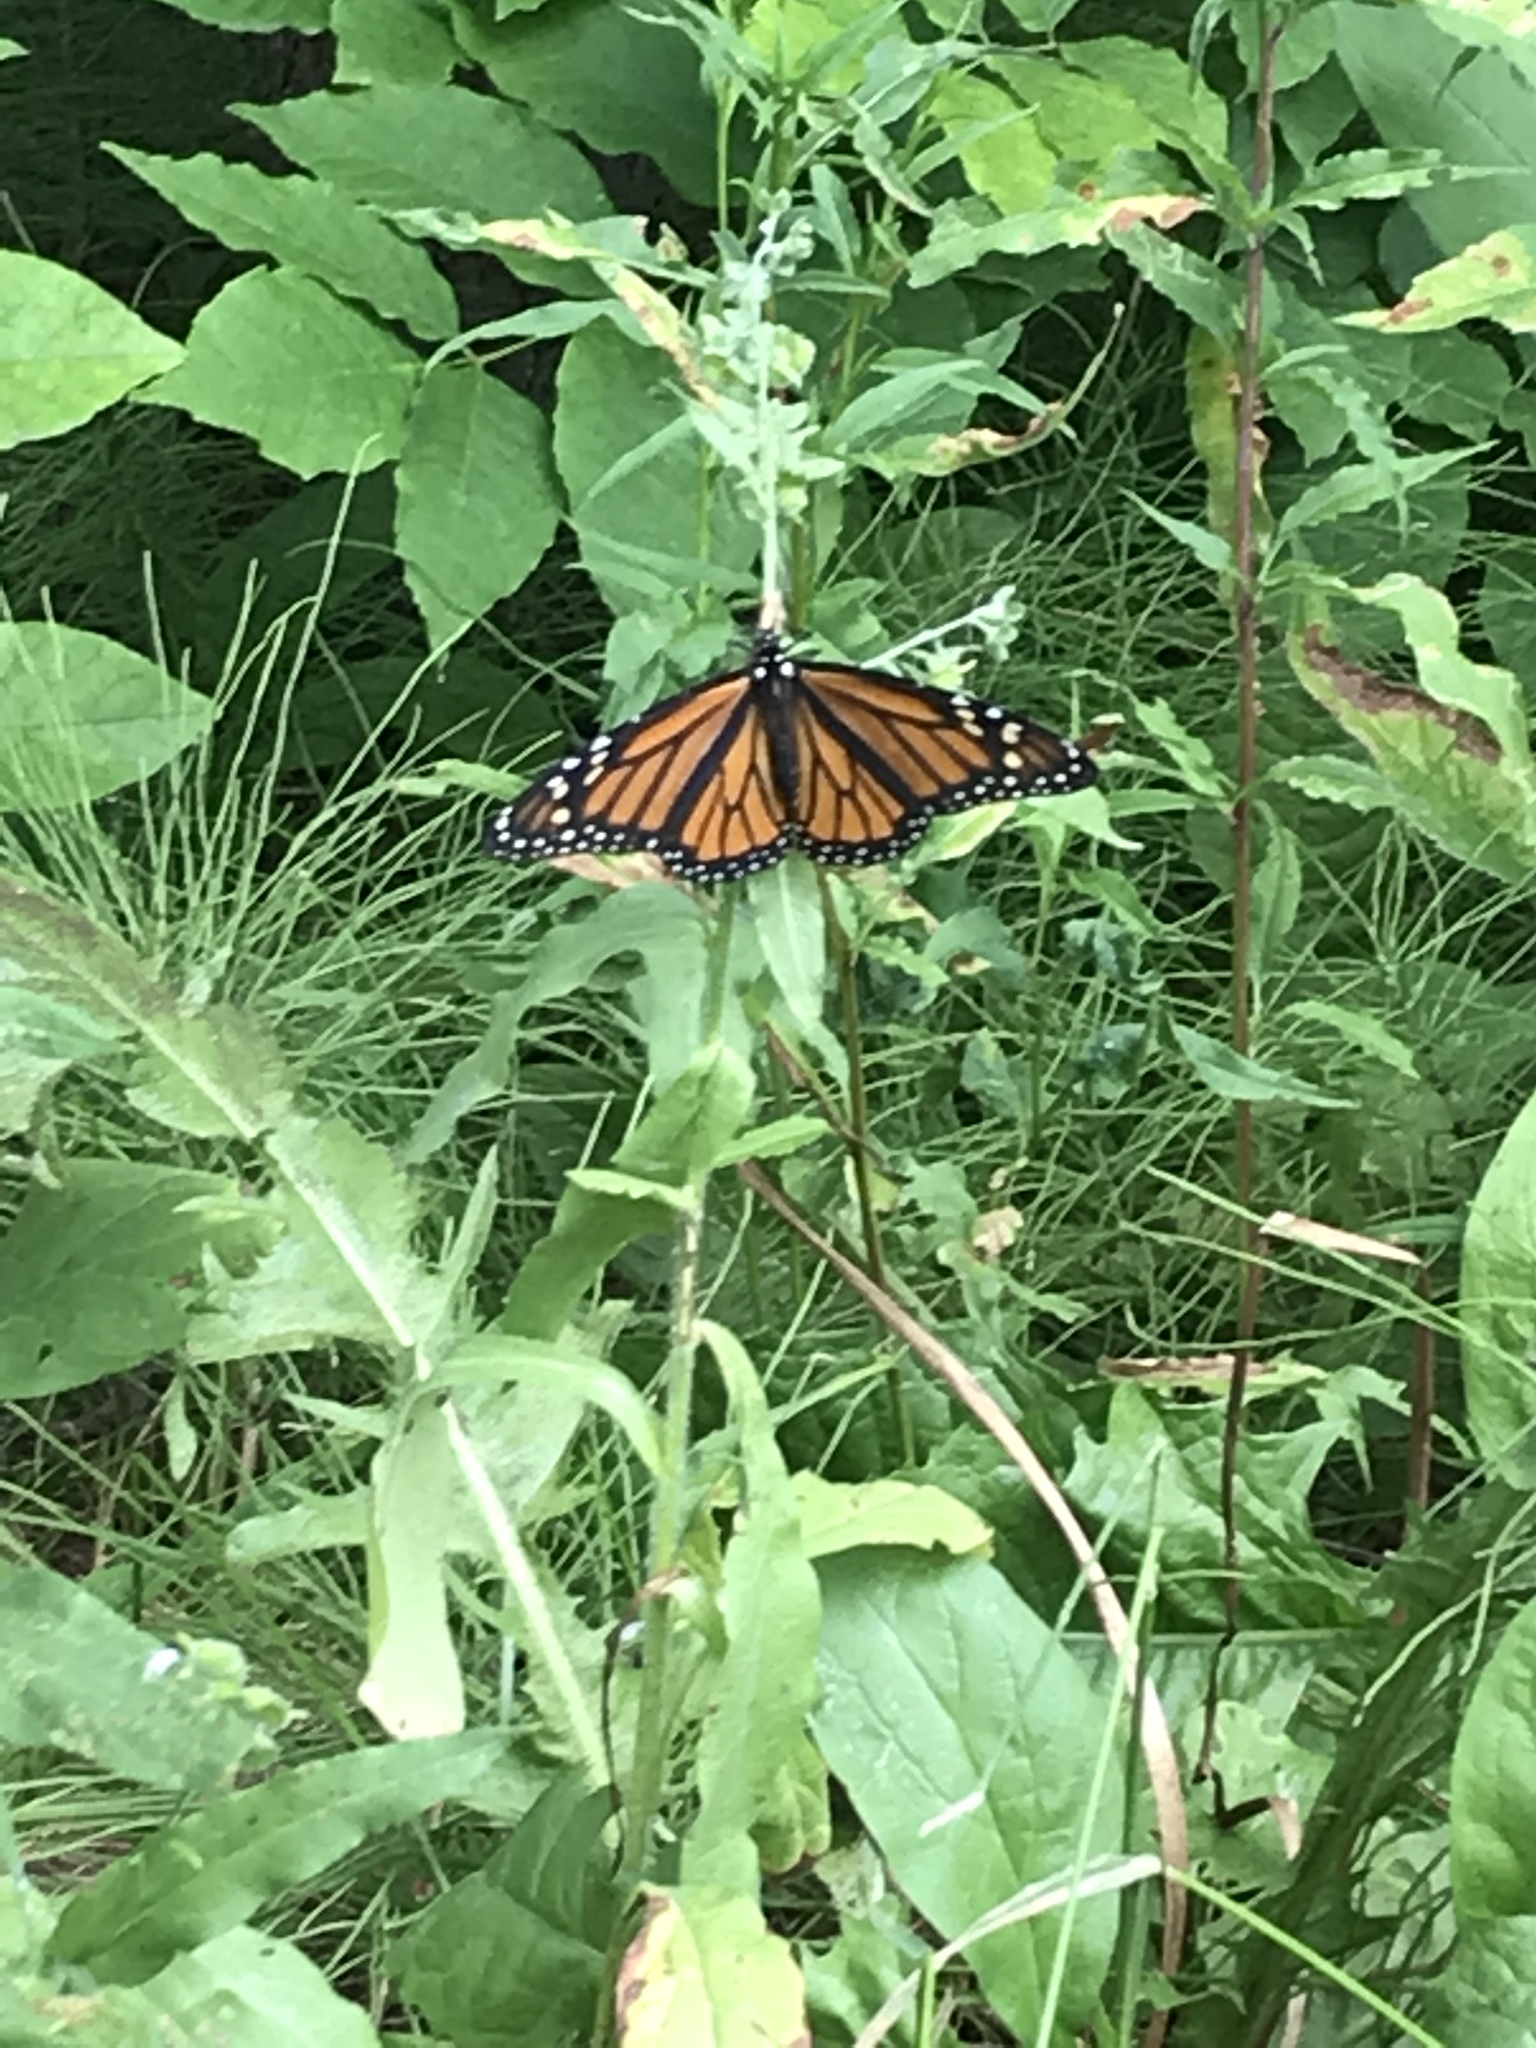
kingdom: Animalia
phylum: Arthropoda
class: Insecta
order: Lepidoptera
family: Nymphalidae
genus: Danaus
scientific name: Danaus plexippus
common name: Monarch
